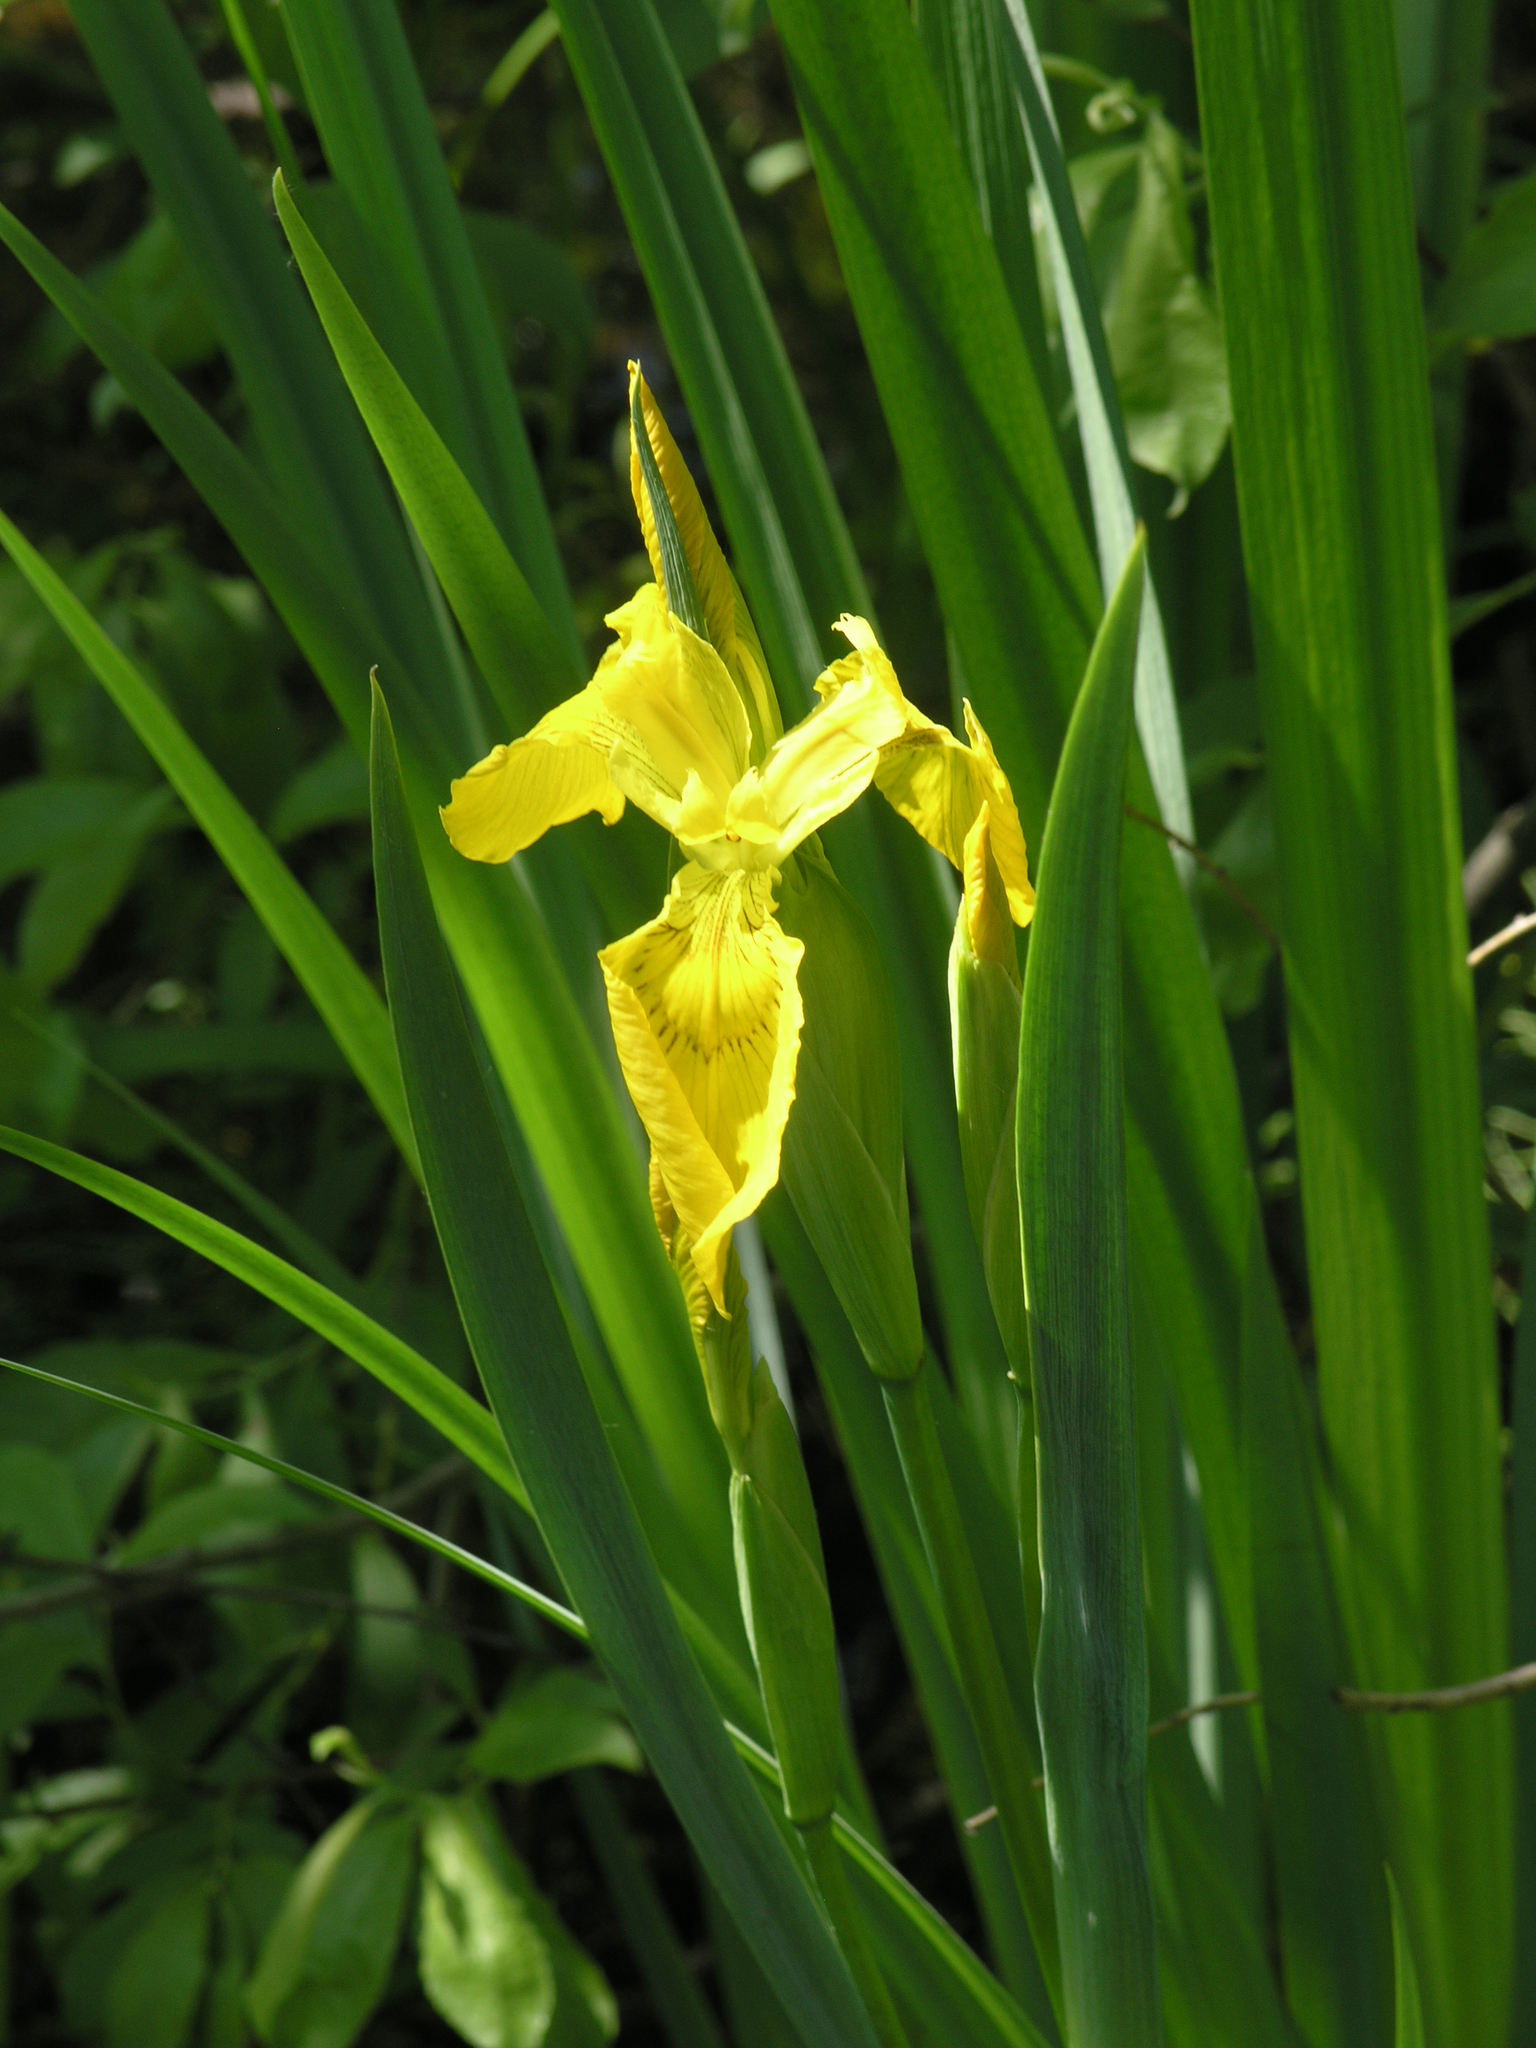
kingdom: Plantae
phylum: Tracheophyta
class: Liliopsida
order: Asparagales
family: Iridaceae
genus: Iris
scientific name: Iris pseudacorus
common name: Yellow flag
